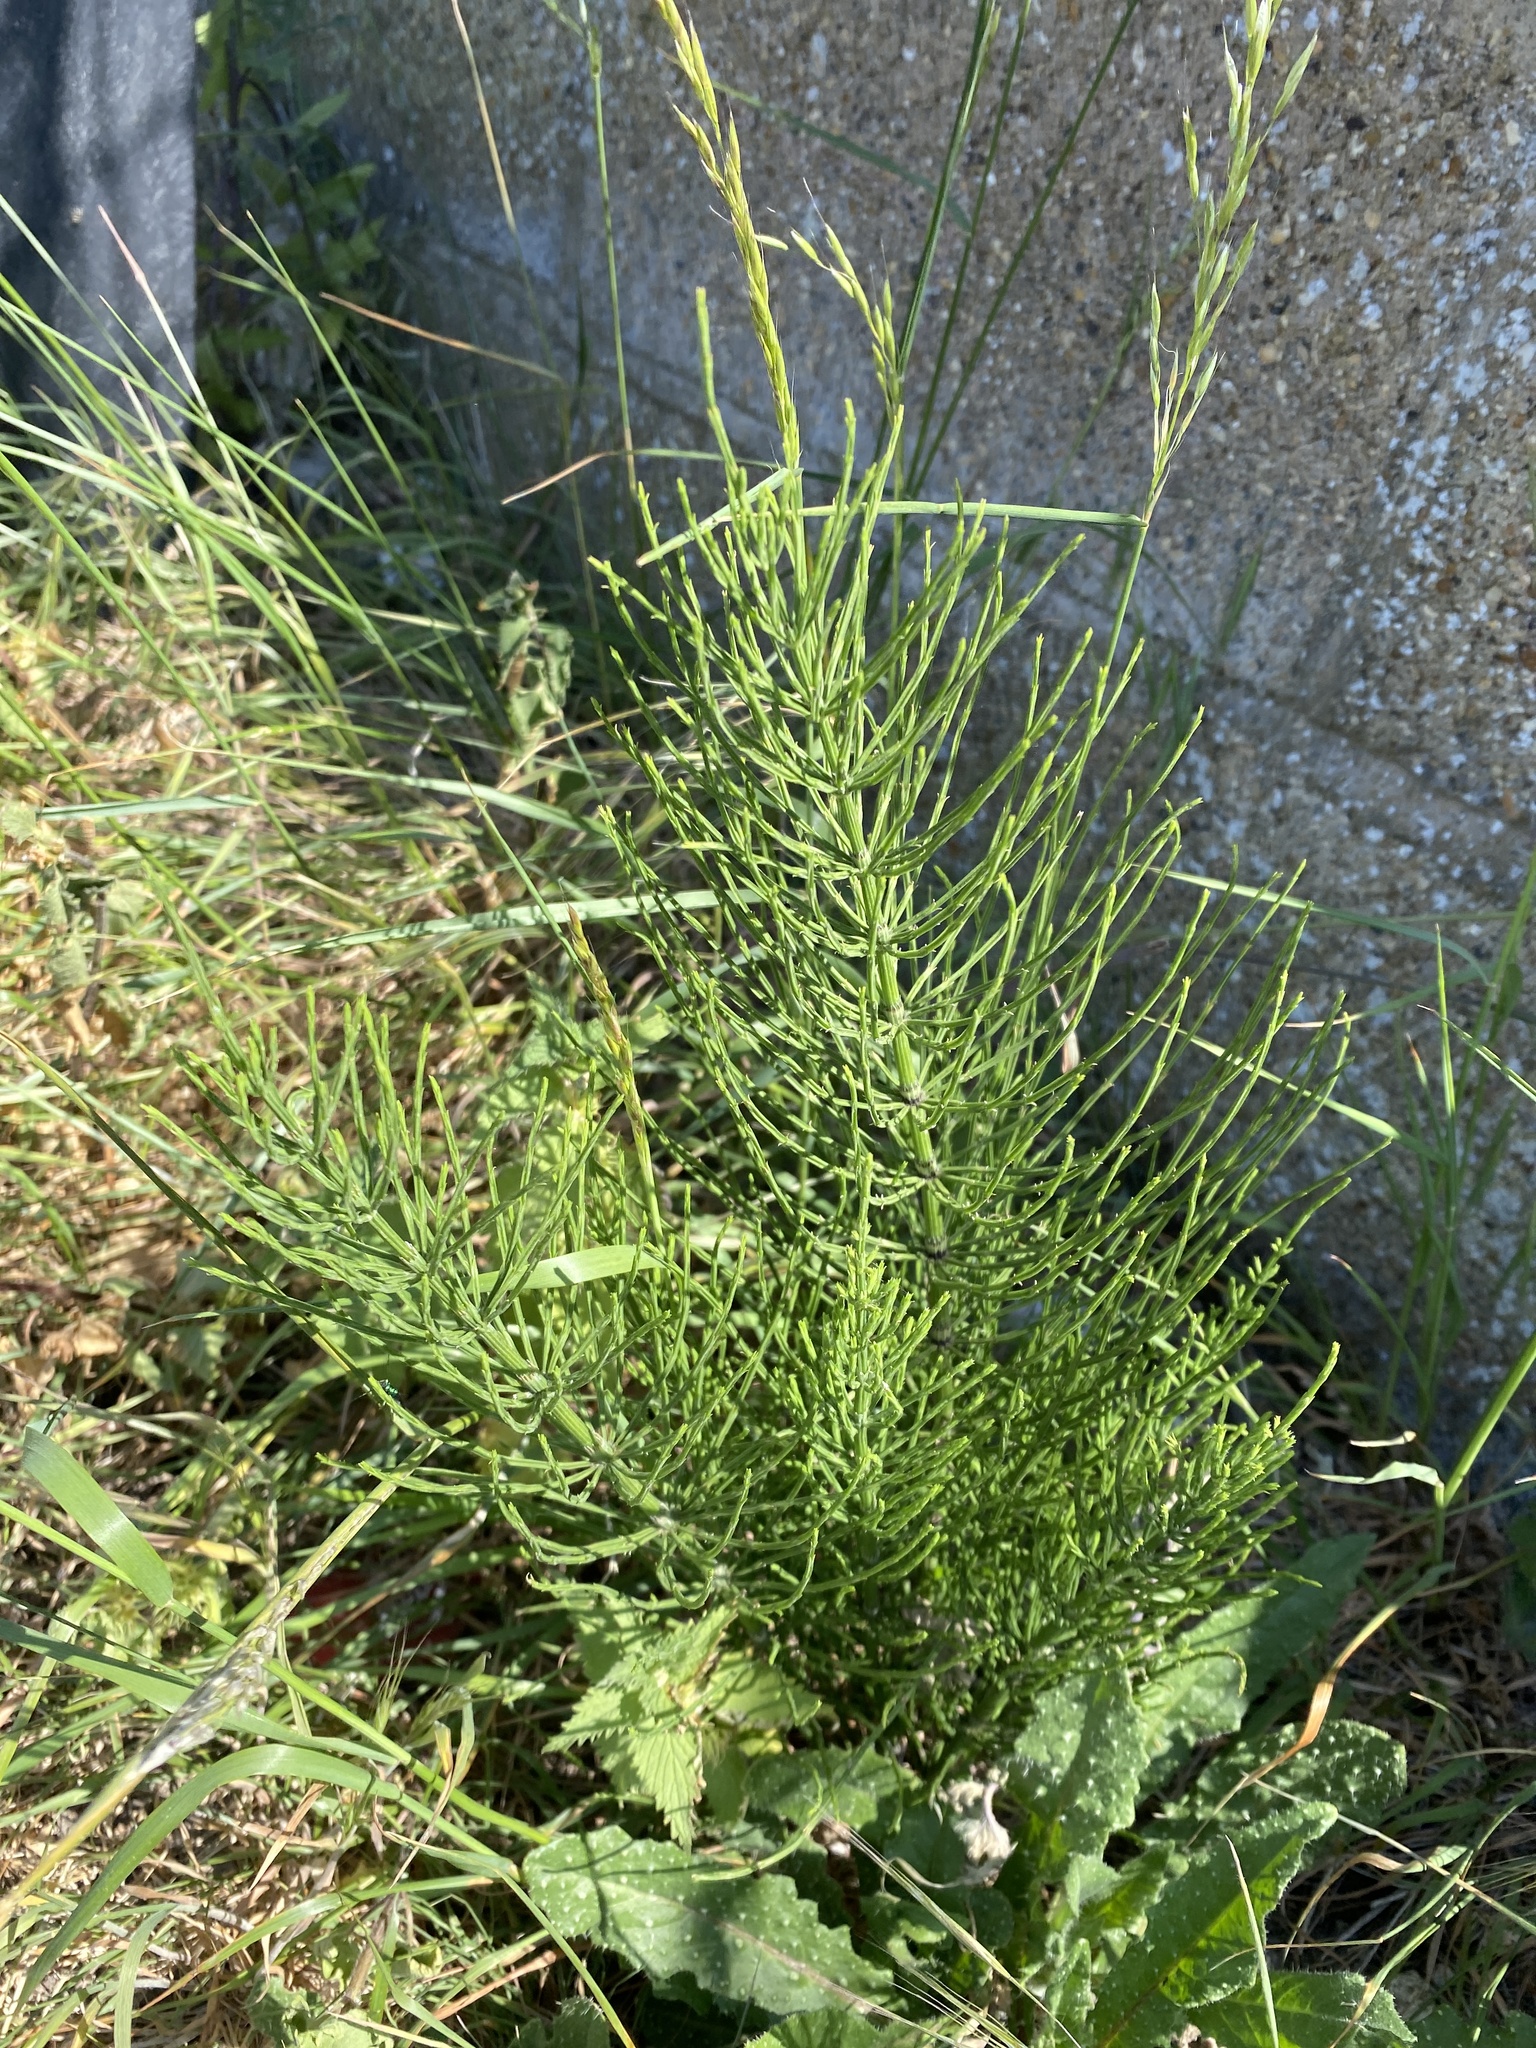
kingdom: Plantae
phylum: Tracheophyta
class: Polypodiopsida
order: Equisetales
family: Equisetaceae
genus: Equisetum
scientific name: Equisetum arvense
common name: Field horsetail
